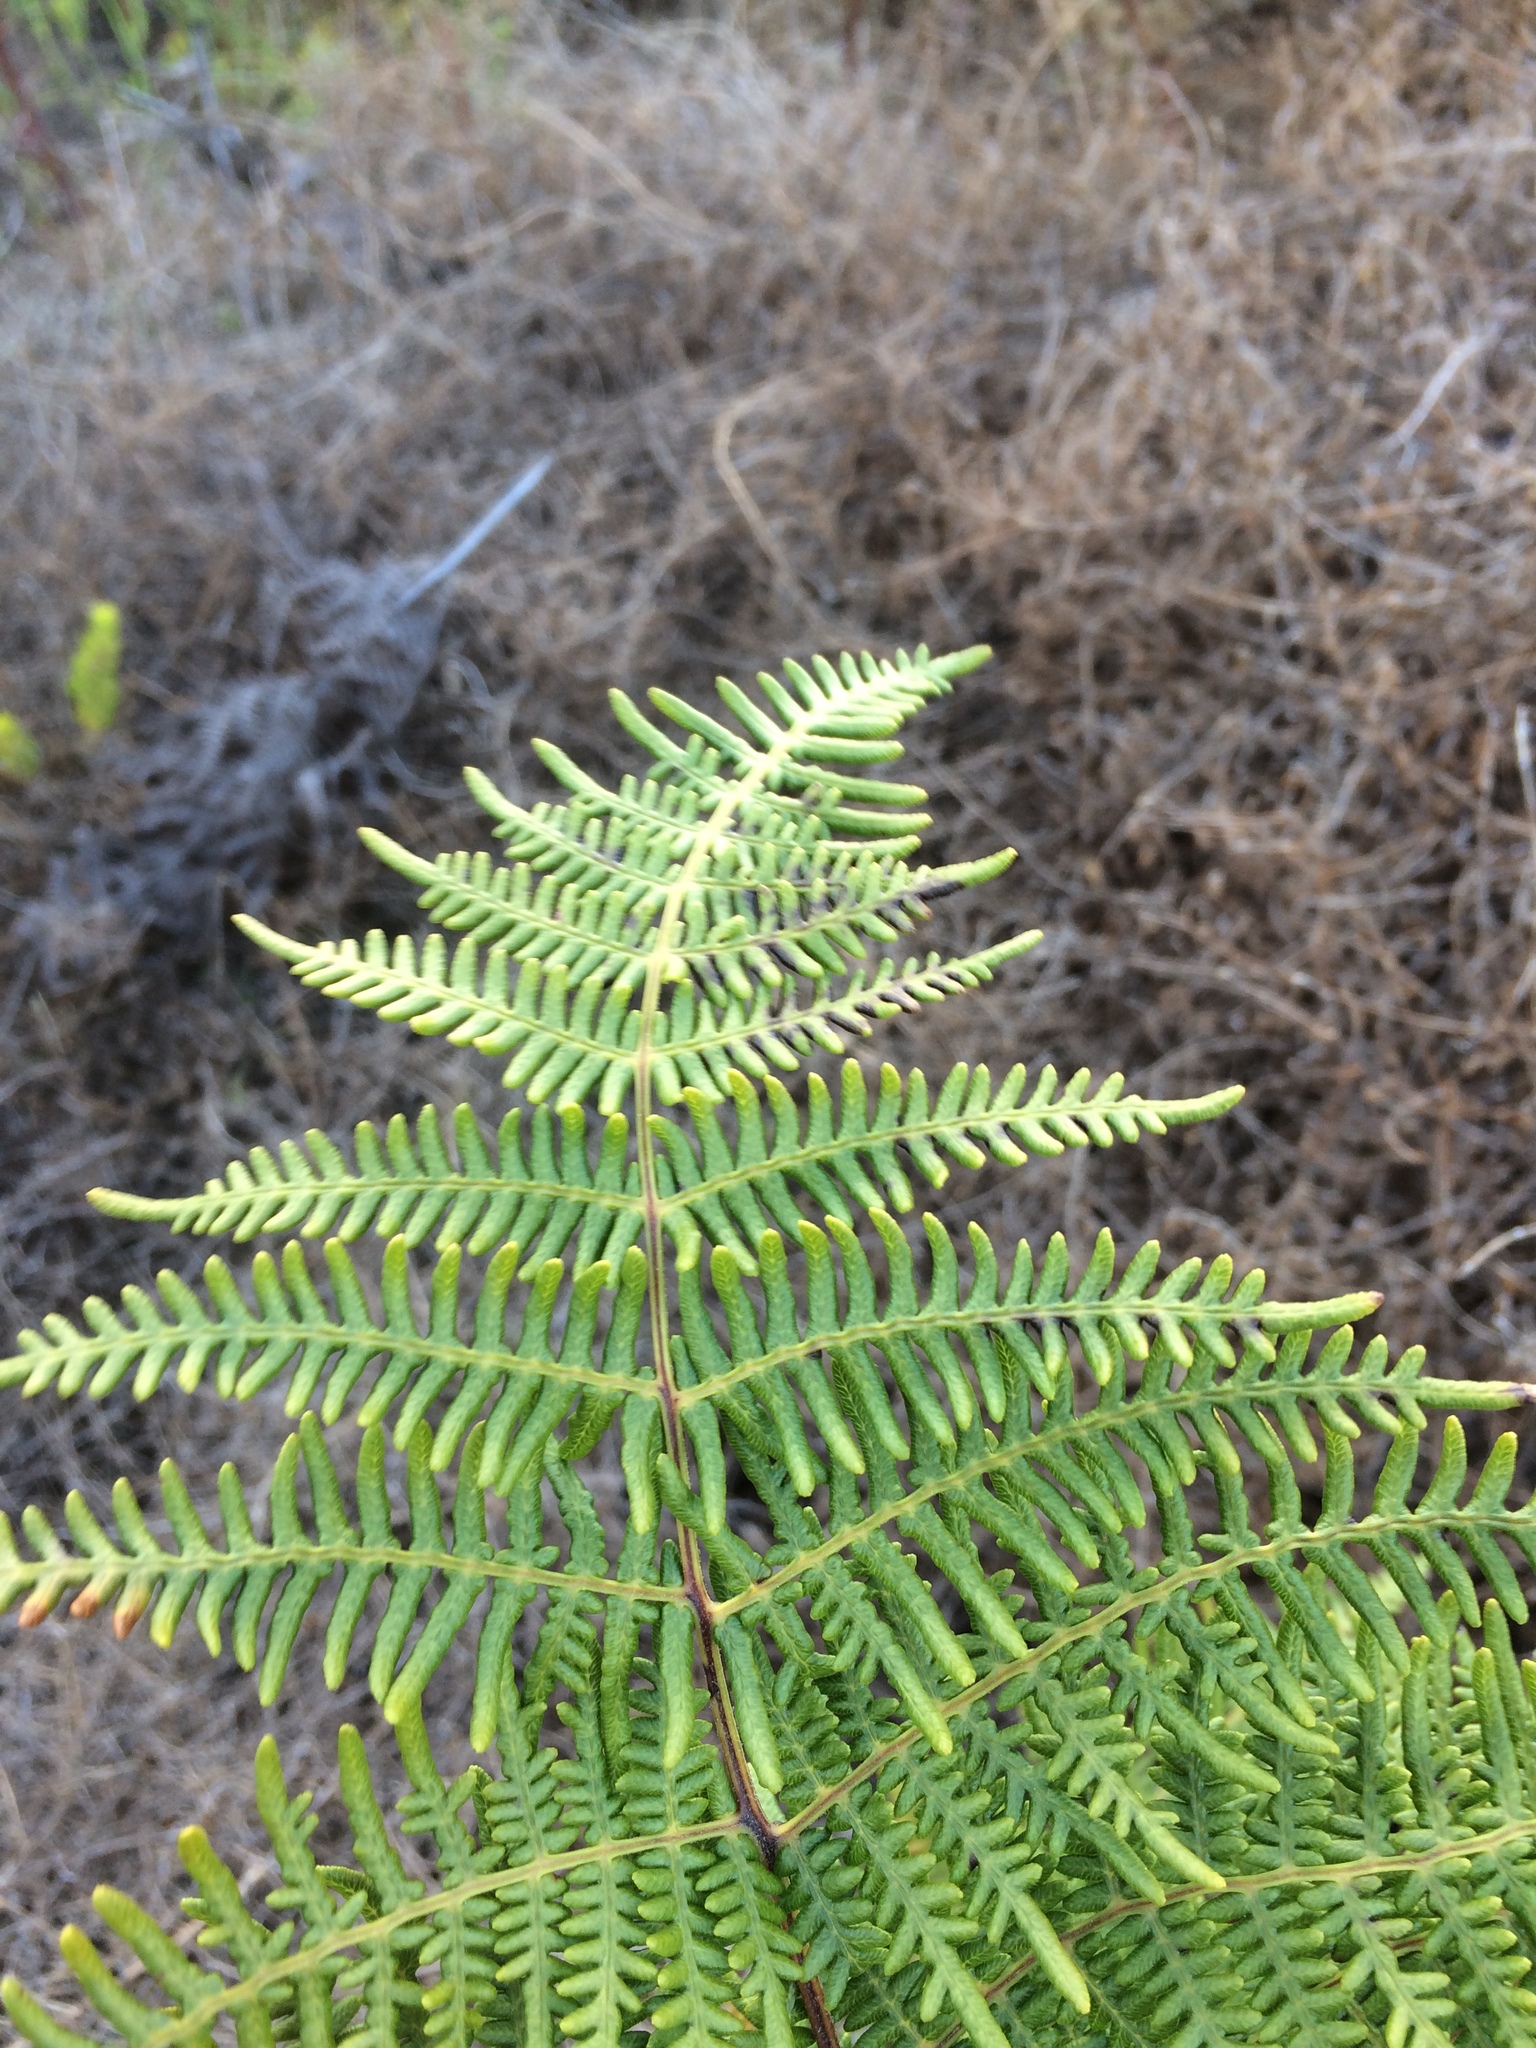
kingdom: Plantae
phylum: Tracheophyta
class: Polypodiopsida
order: Polypodiales
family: Dennstaedtiaceae
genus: Pteridium
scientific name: Pteridium aquilinum
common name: Bracken
